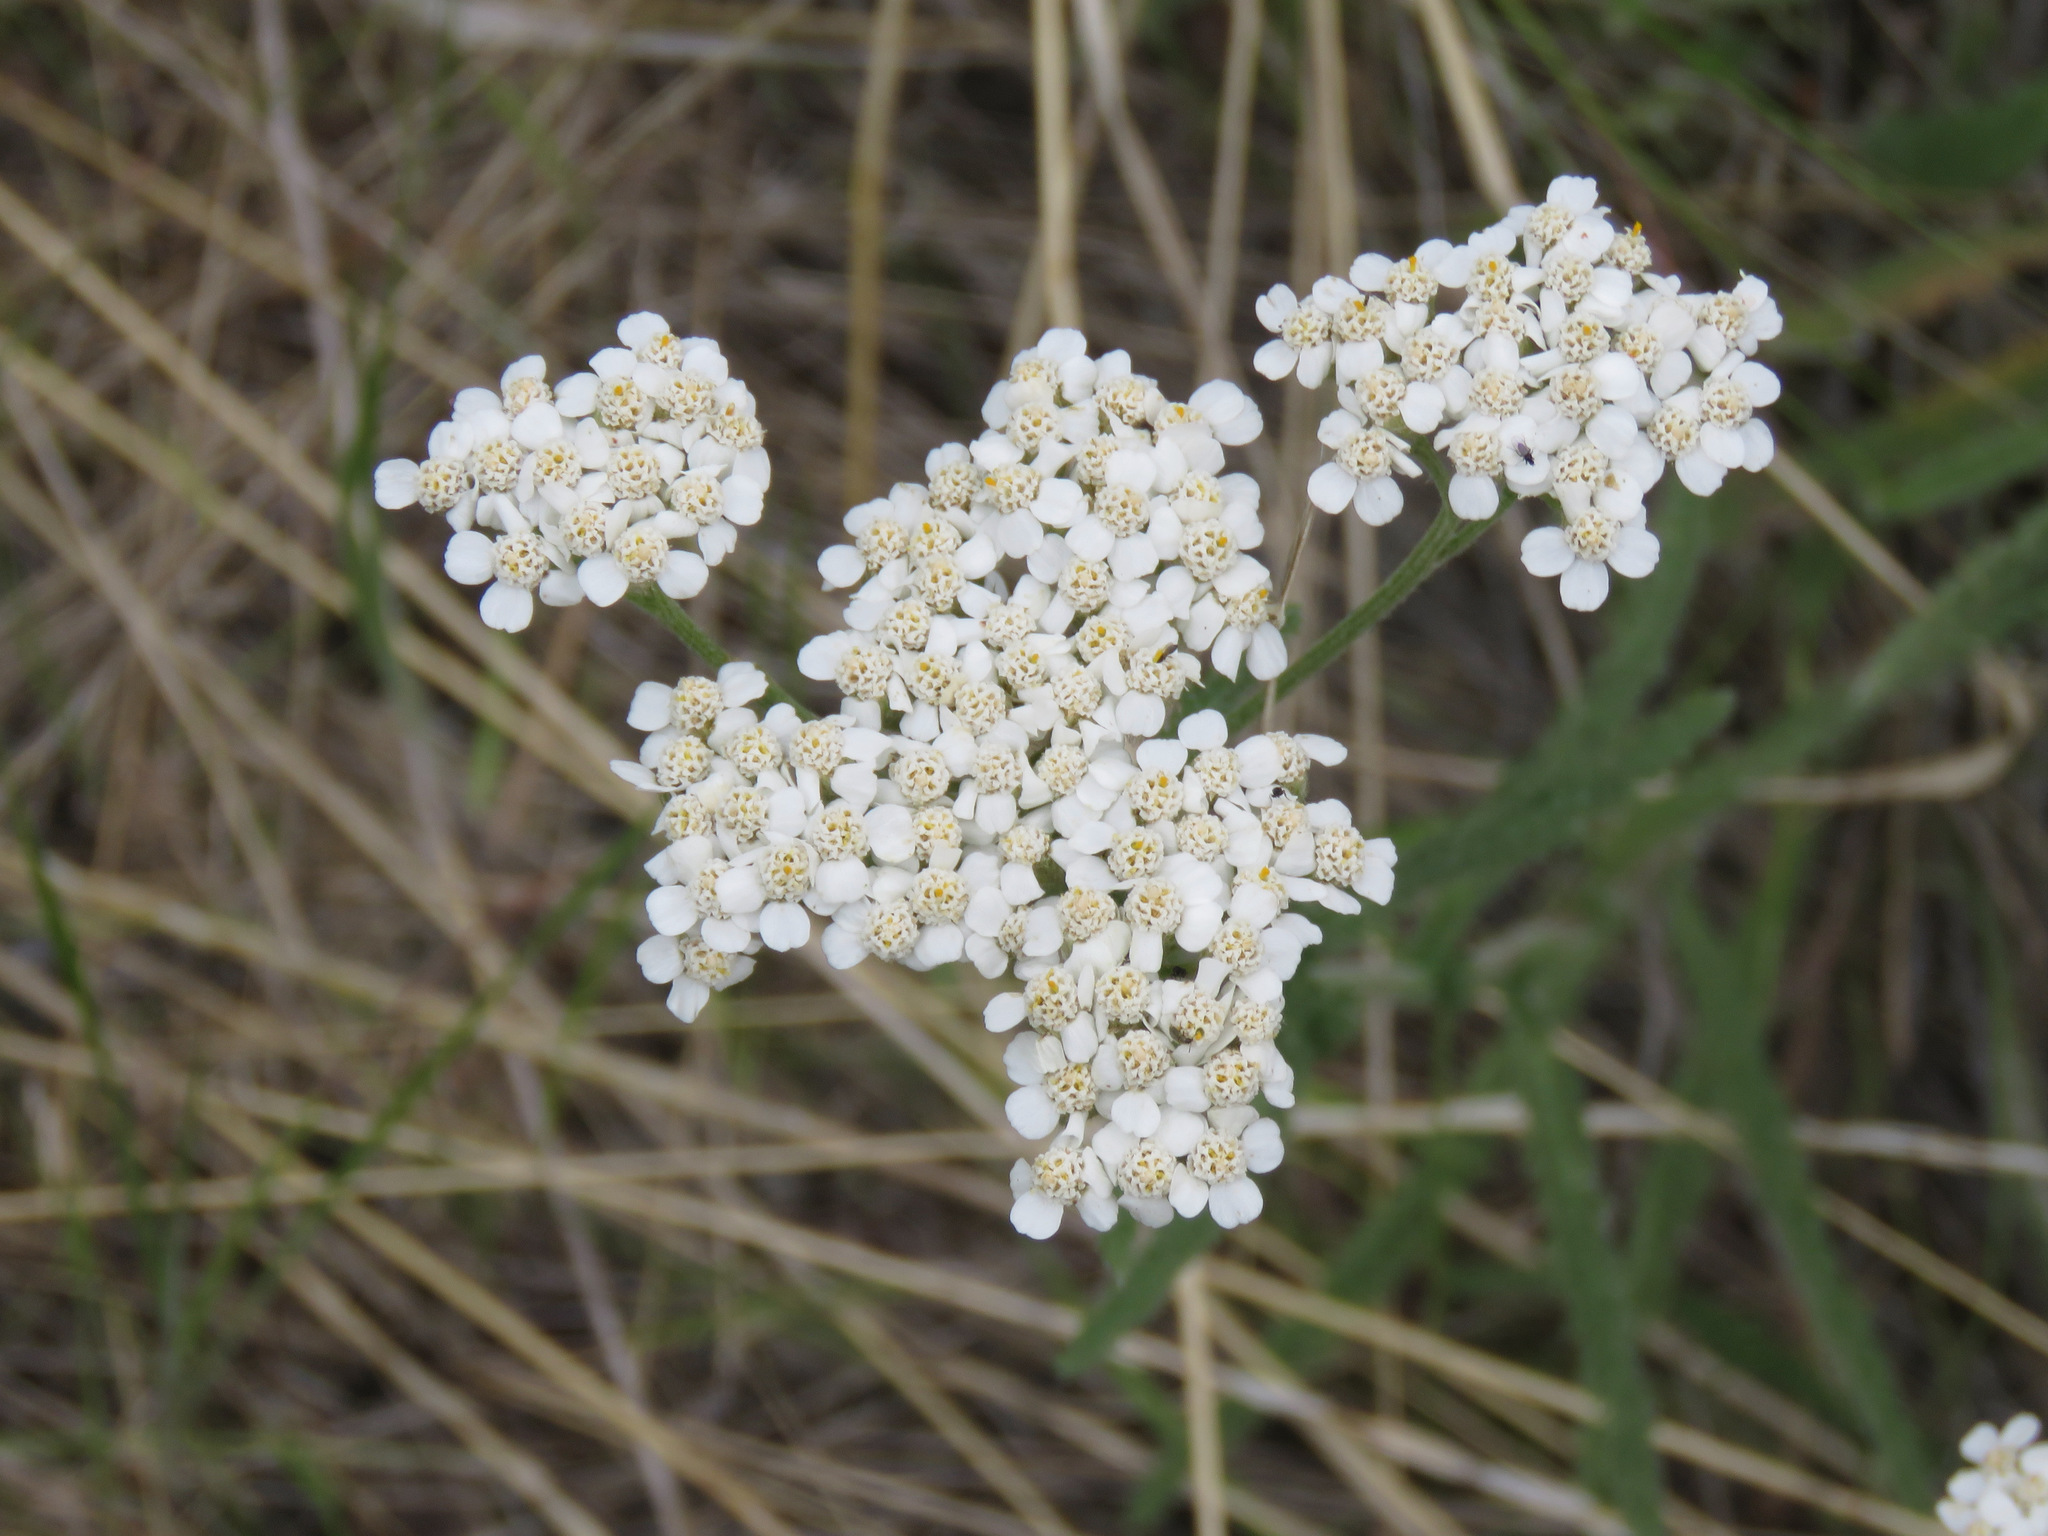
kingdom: Plantae
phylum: Tracheophyta
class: Magnoliopsida
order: Asterales
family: Asteraceae
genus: Achillea
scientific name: Achillea millefolium
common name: Yarrow
